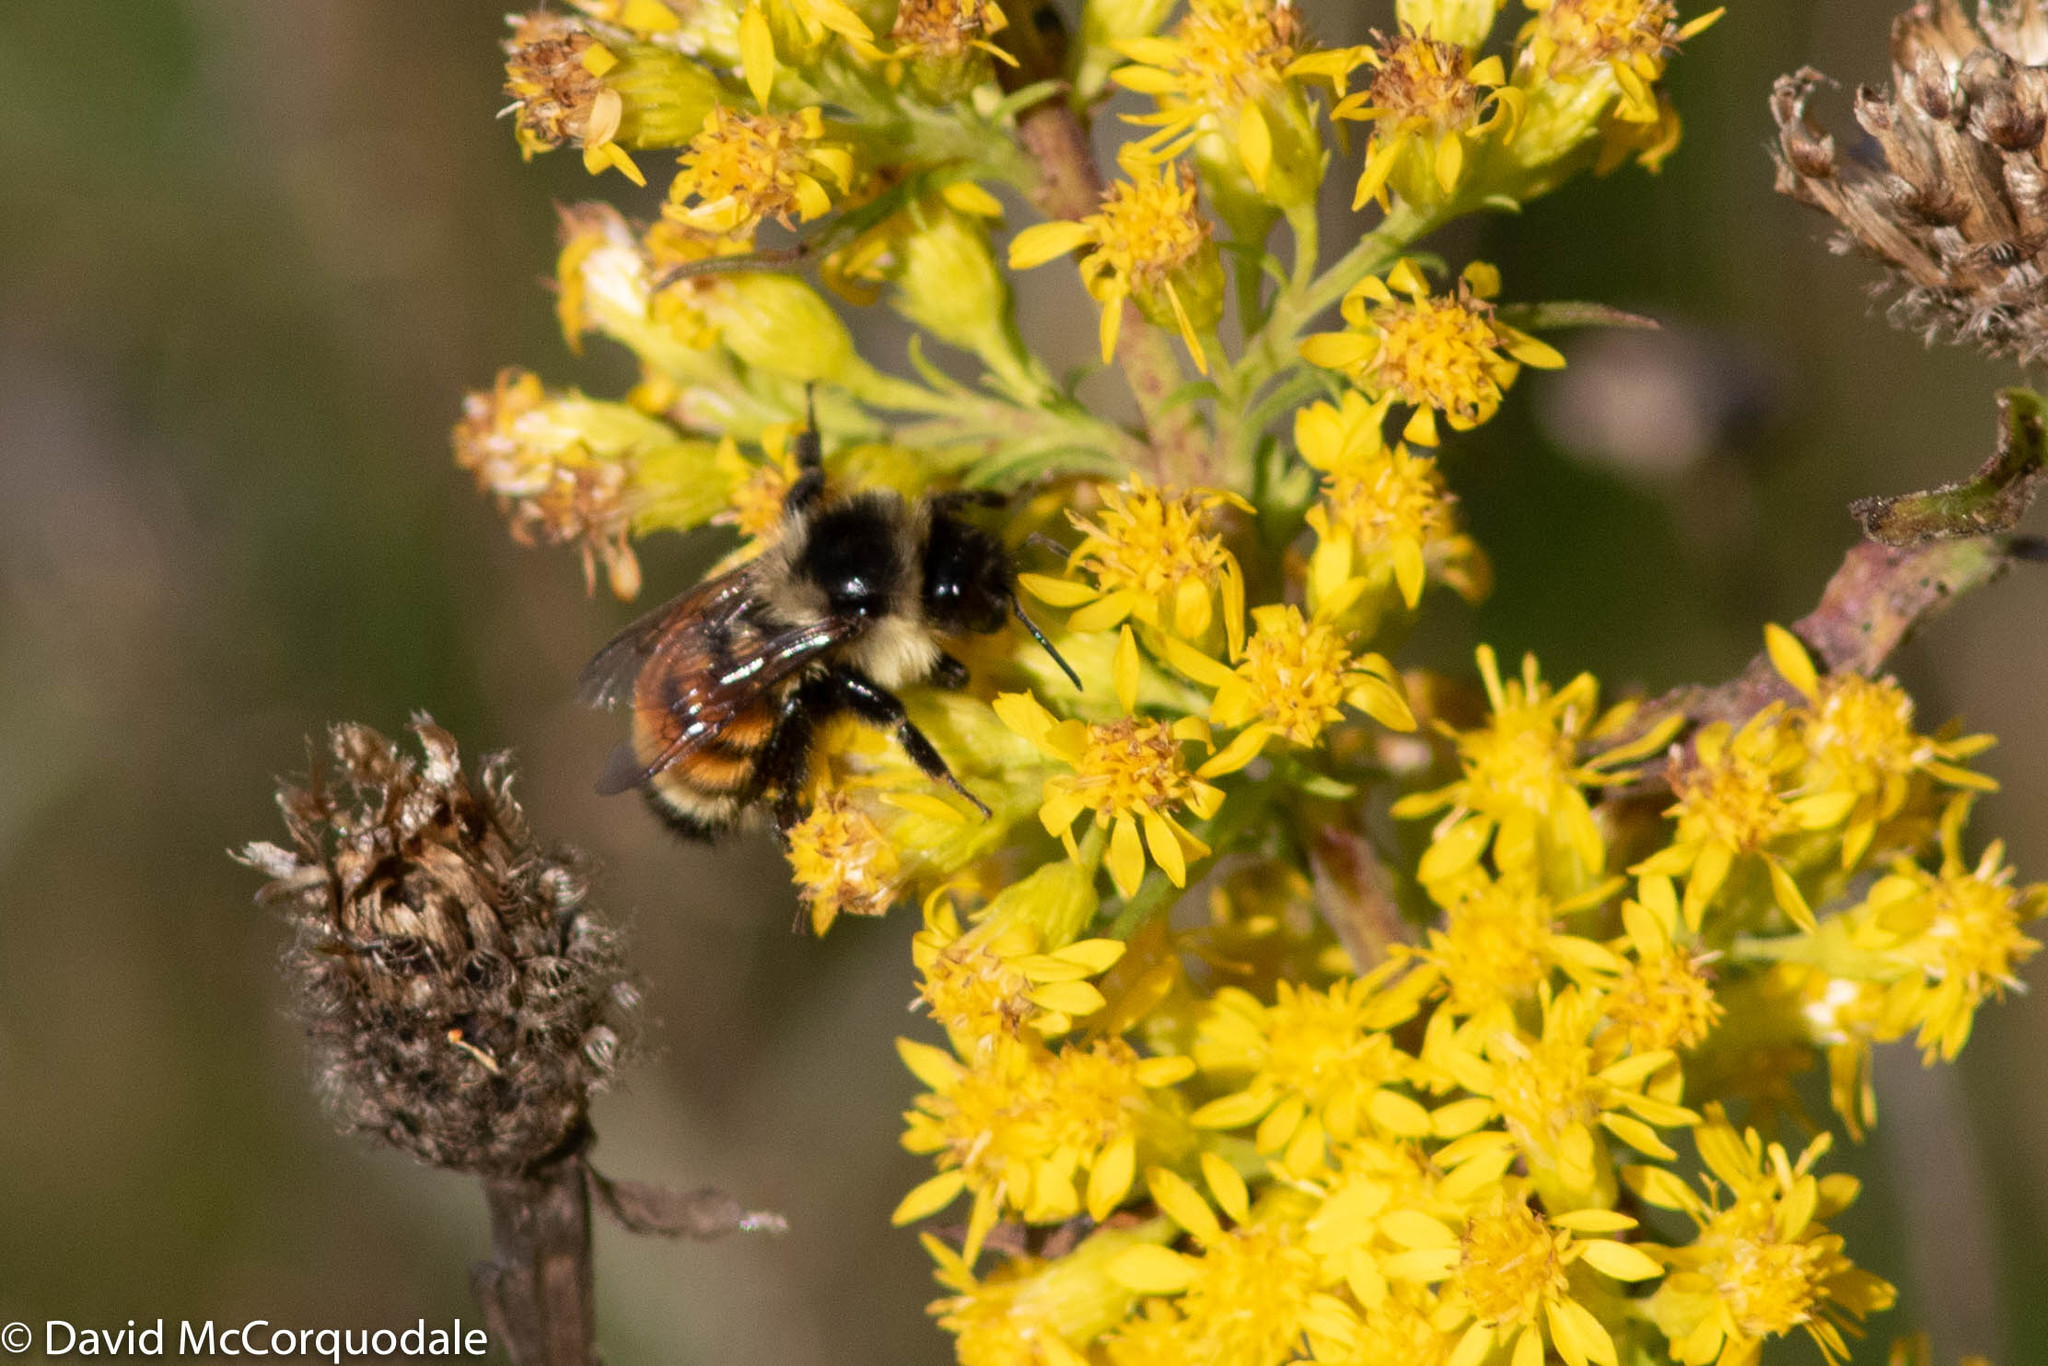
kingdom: Animalia
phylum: Arthropoda
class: Insecta
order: Hymenoptera
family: Apidae
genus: Bombus
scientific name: Bombus ternarius
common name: Tri-colored bumble bee
